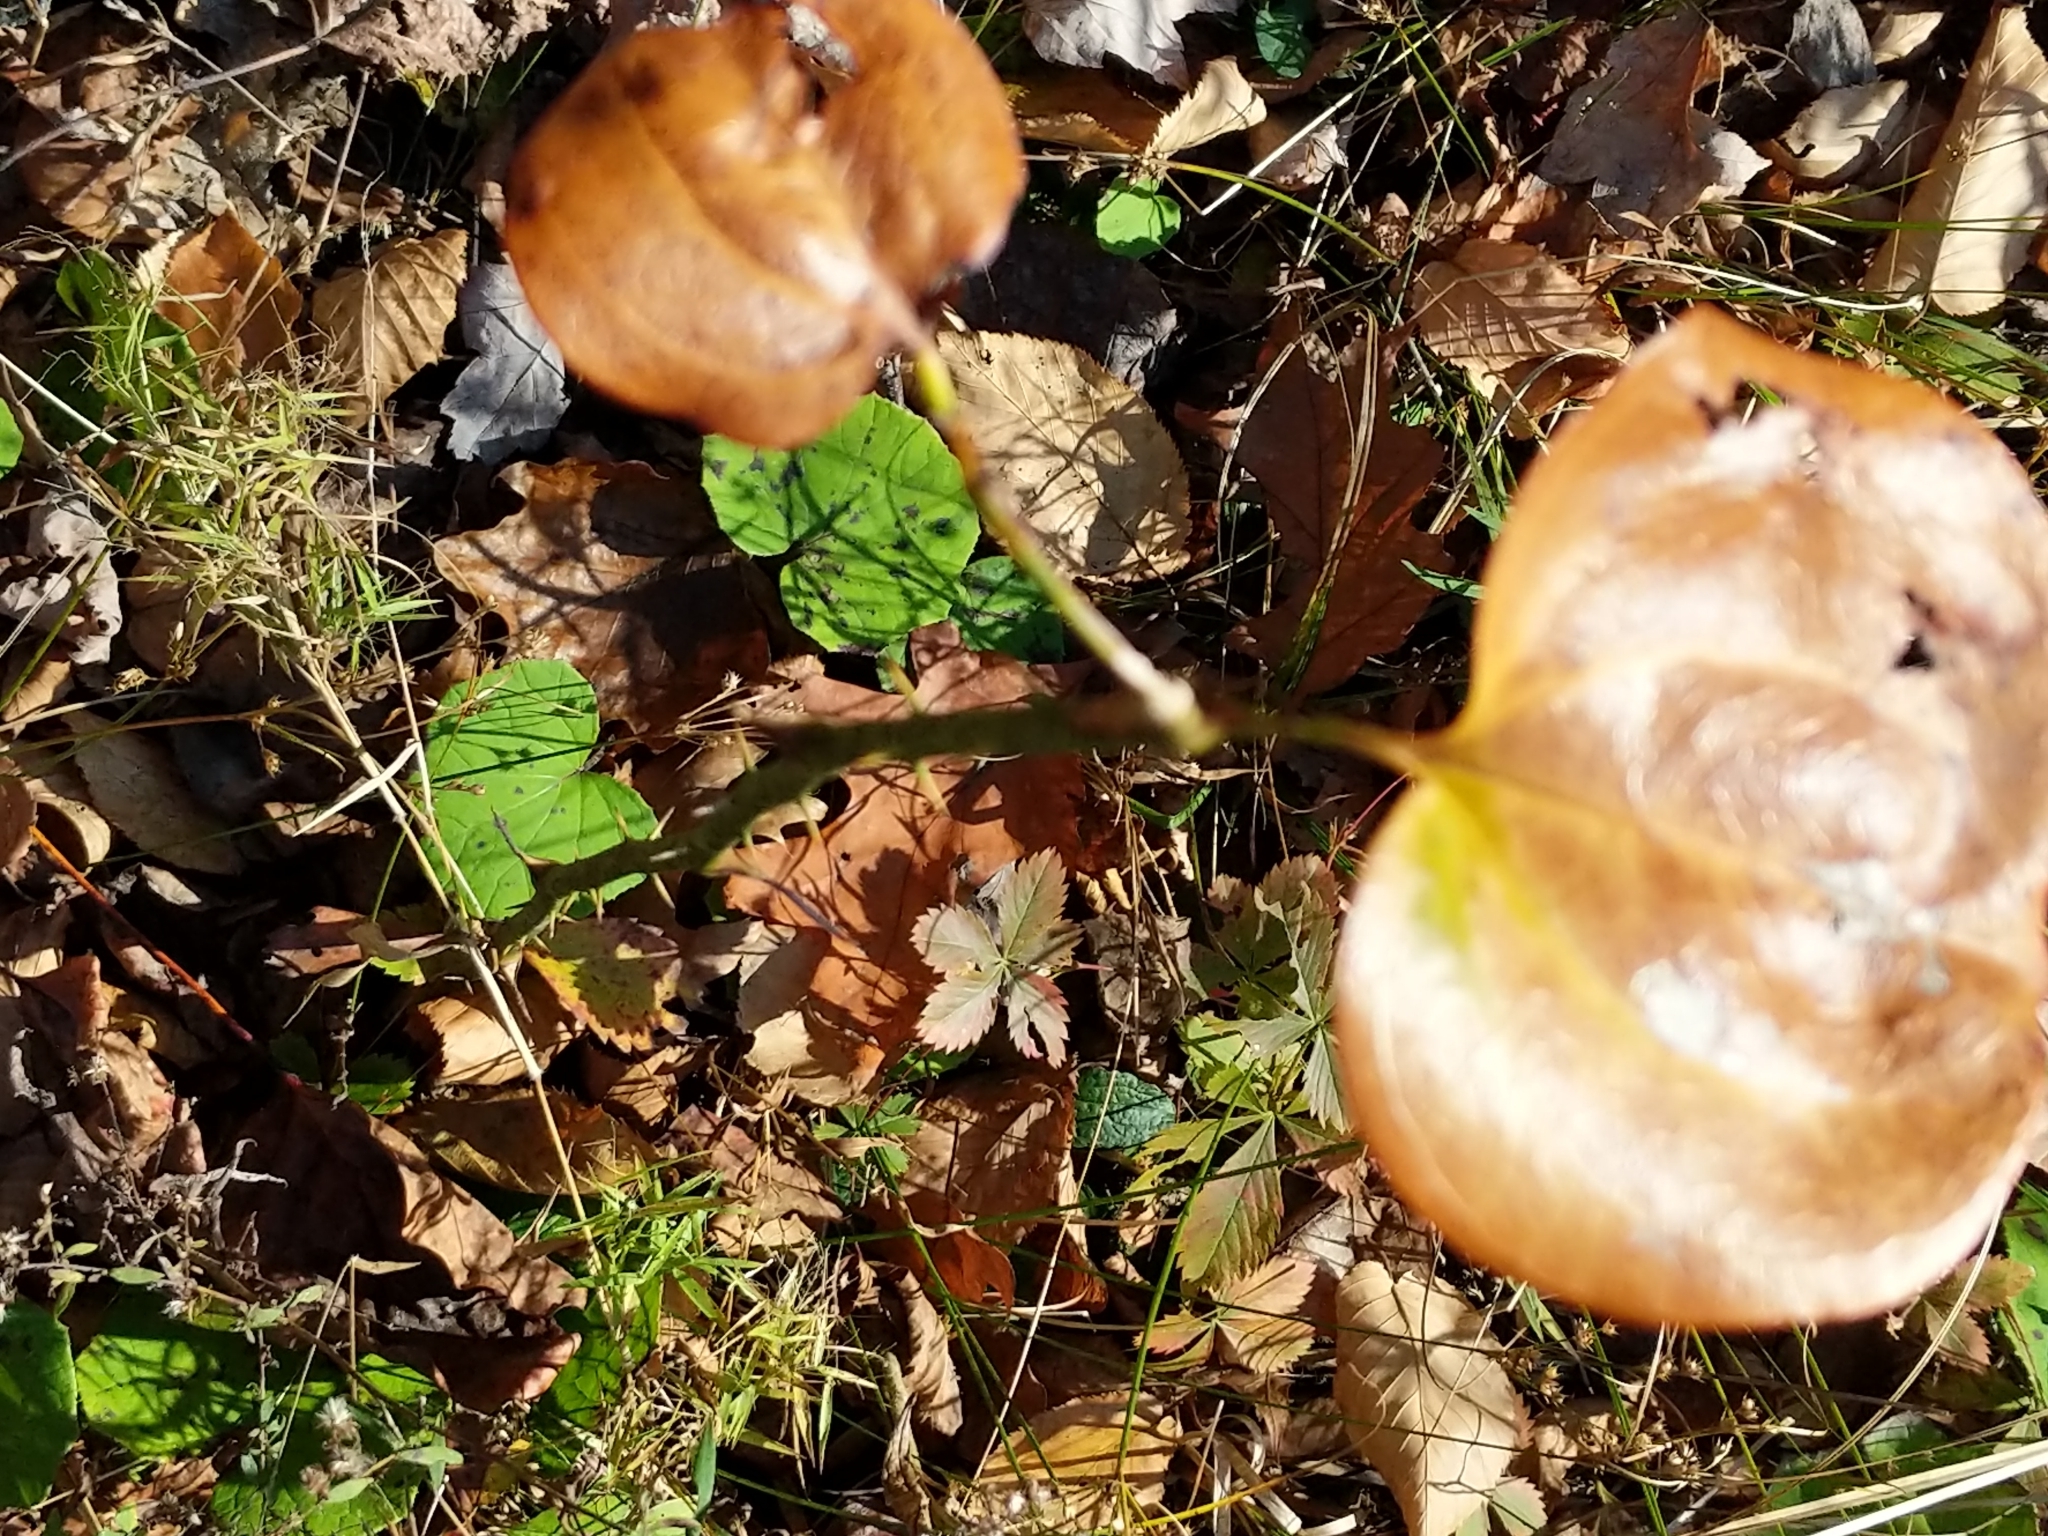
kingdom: Plantae
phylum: Tracheophyta
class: Liliopsida
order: Liliales
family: Smilacaceae
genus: Smilax
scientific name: Smilax rotundifolia
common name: Bullbriar
